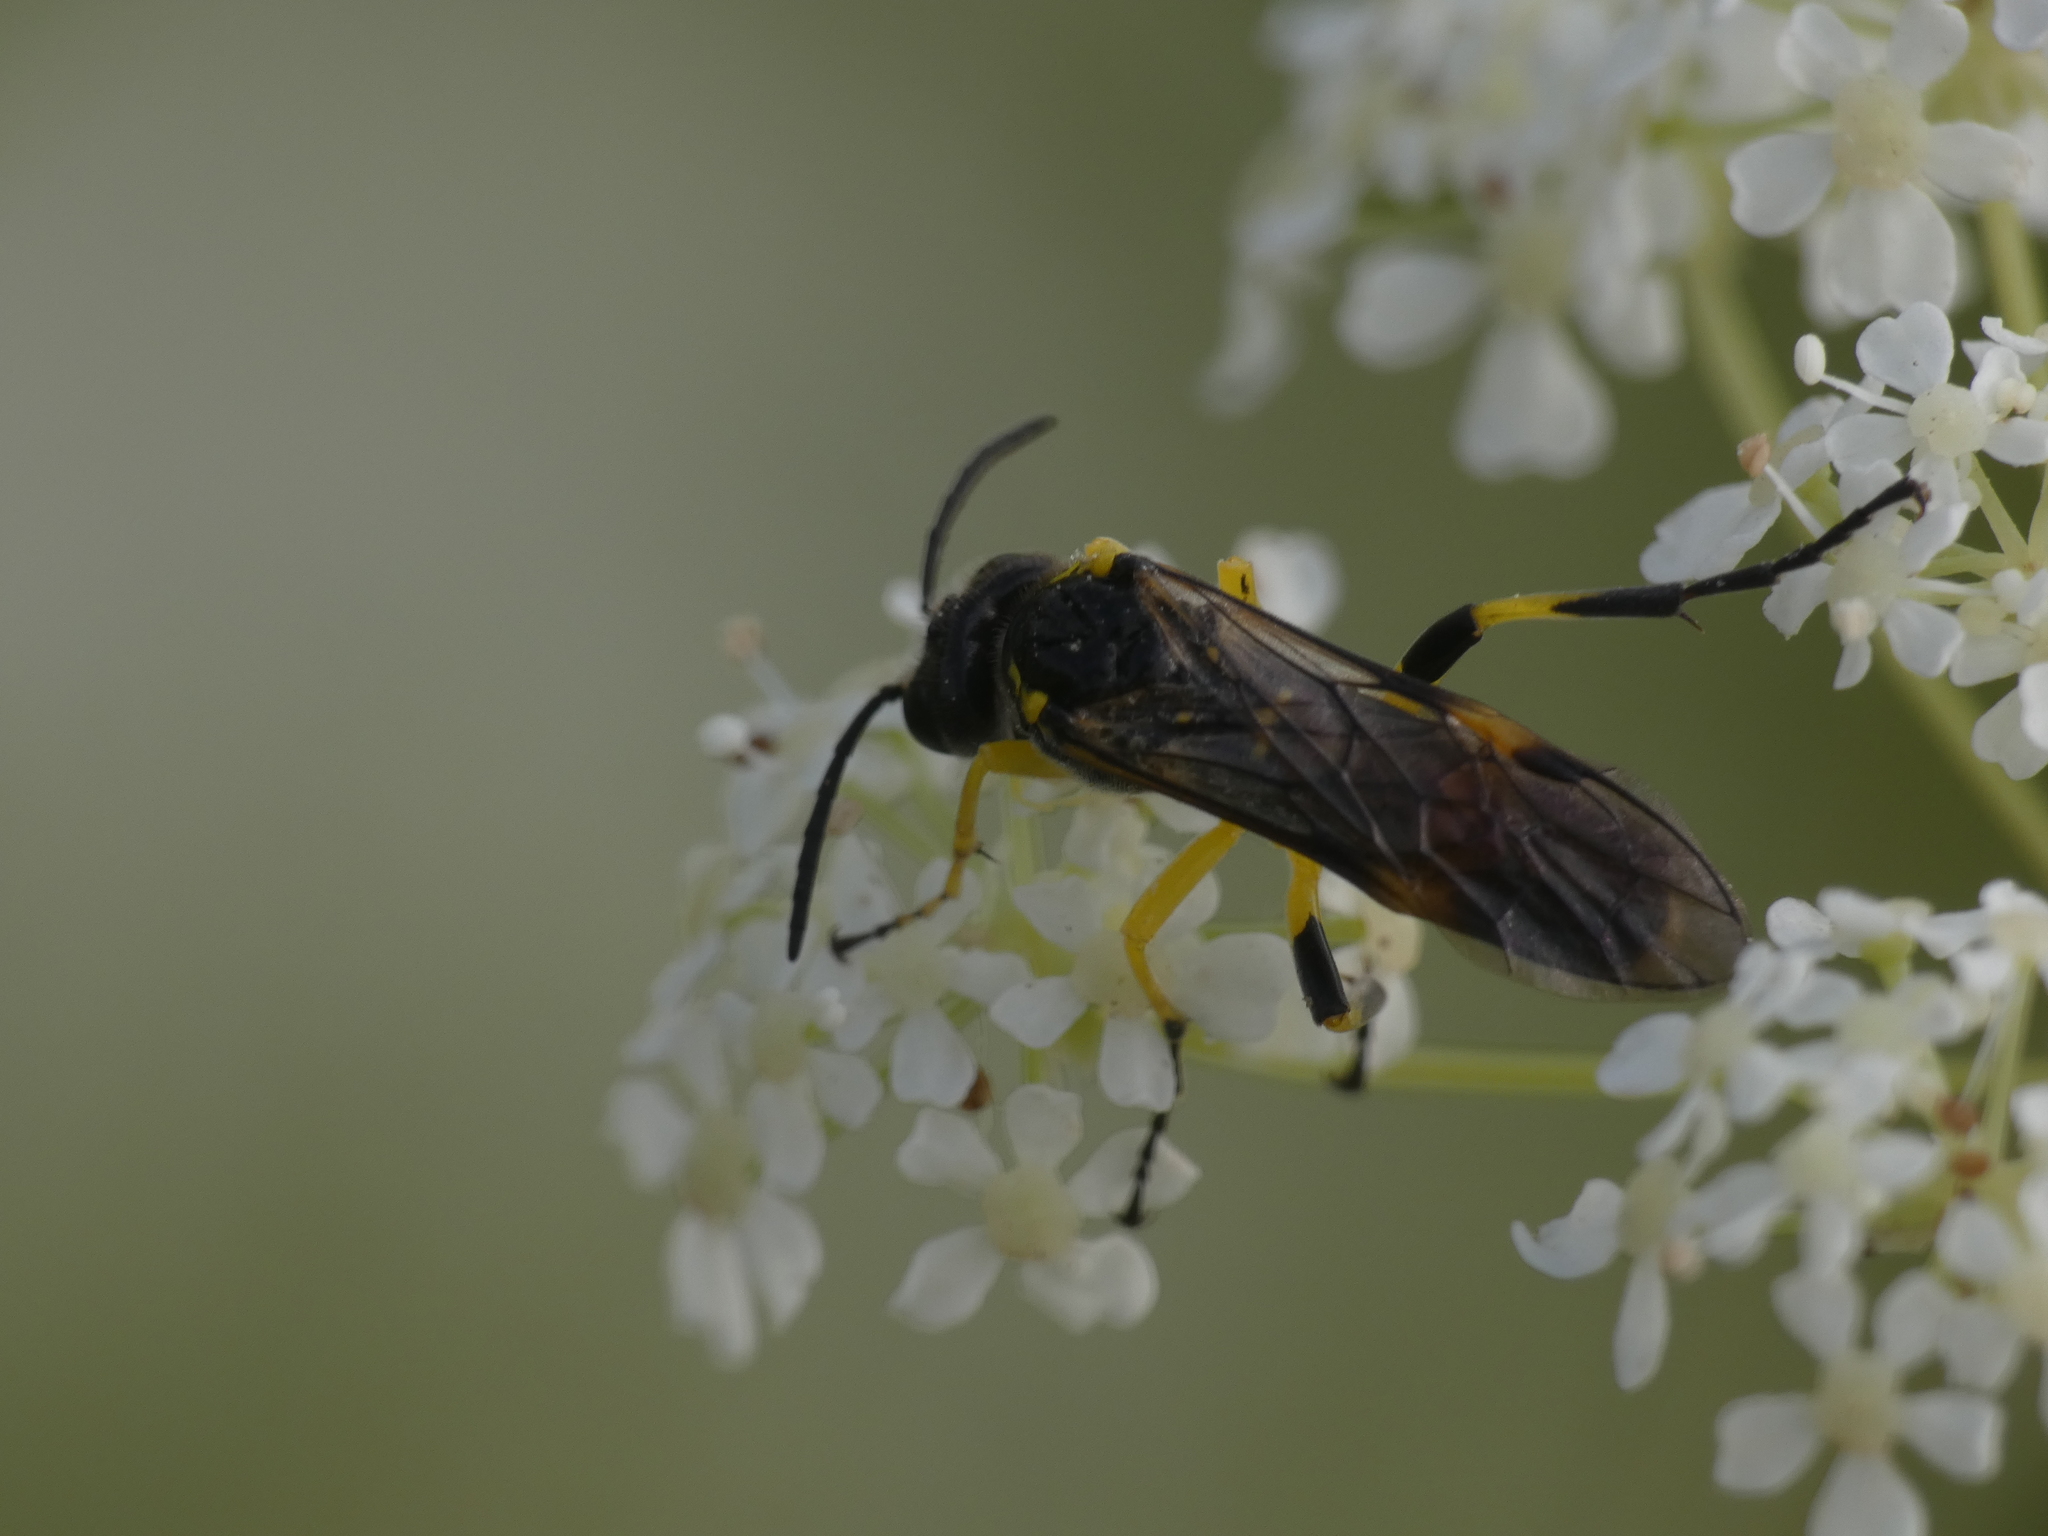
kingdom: Animalia
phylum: Arthropoda
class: Insecta
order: Hymenoptera
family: Tenthredinidae
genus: Macrophya
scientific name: Macrophya montana
